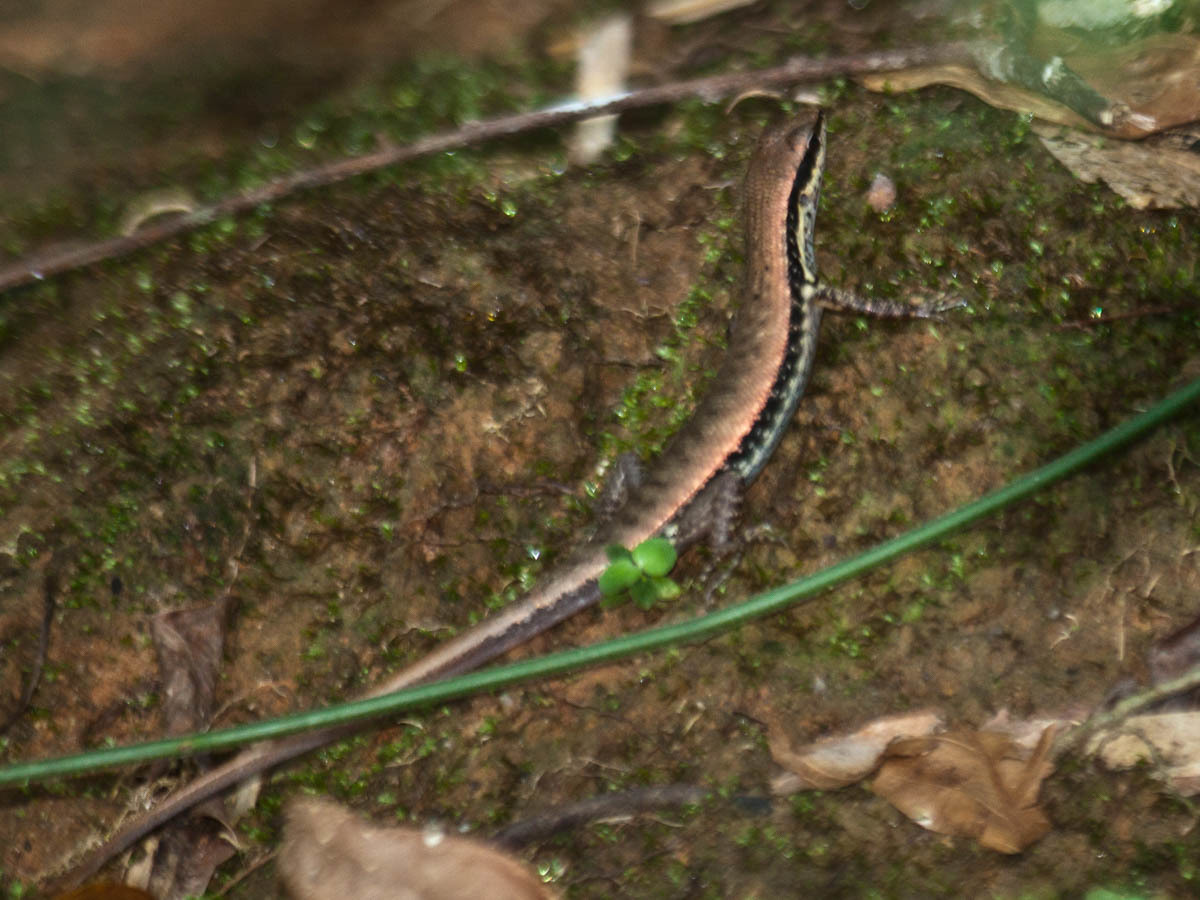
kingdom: Animalia
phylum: Chordata
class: Squamata
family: Scincidae
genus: Sphenomorphus
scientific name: Sphenomorphus maculatus
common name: Maculated forest skink
